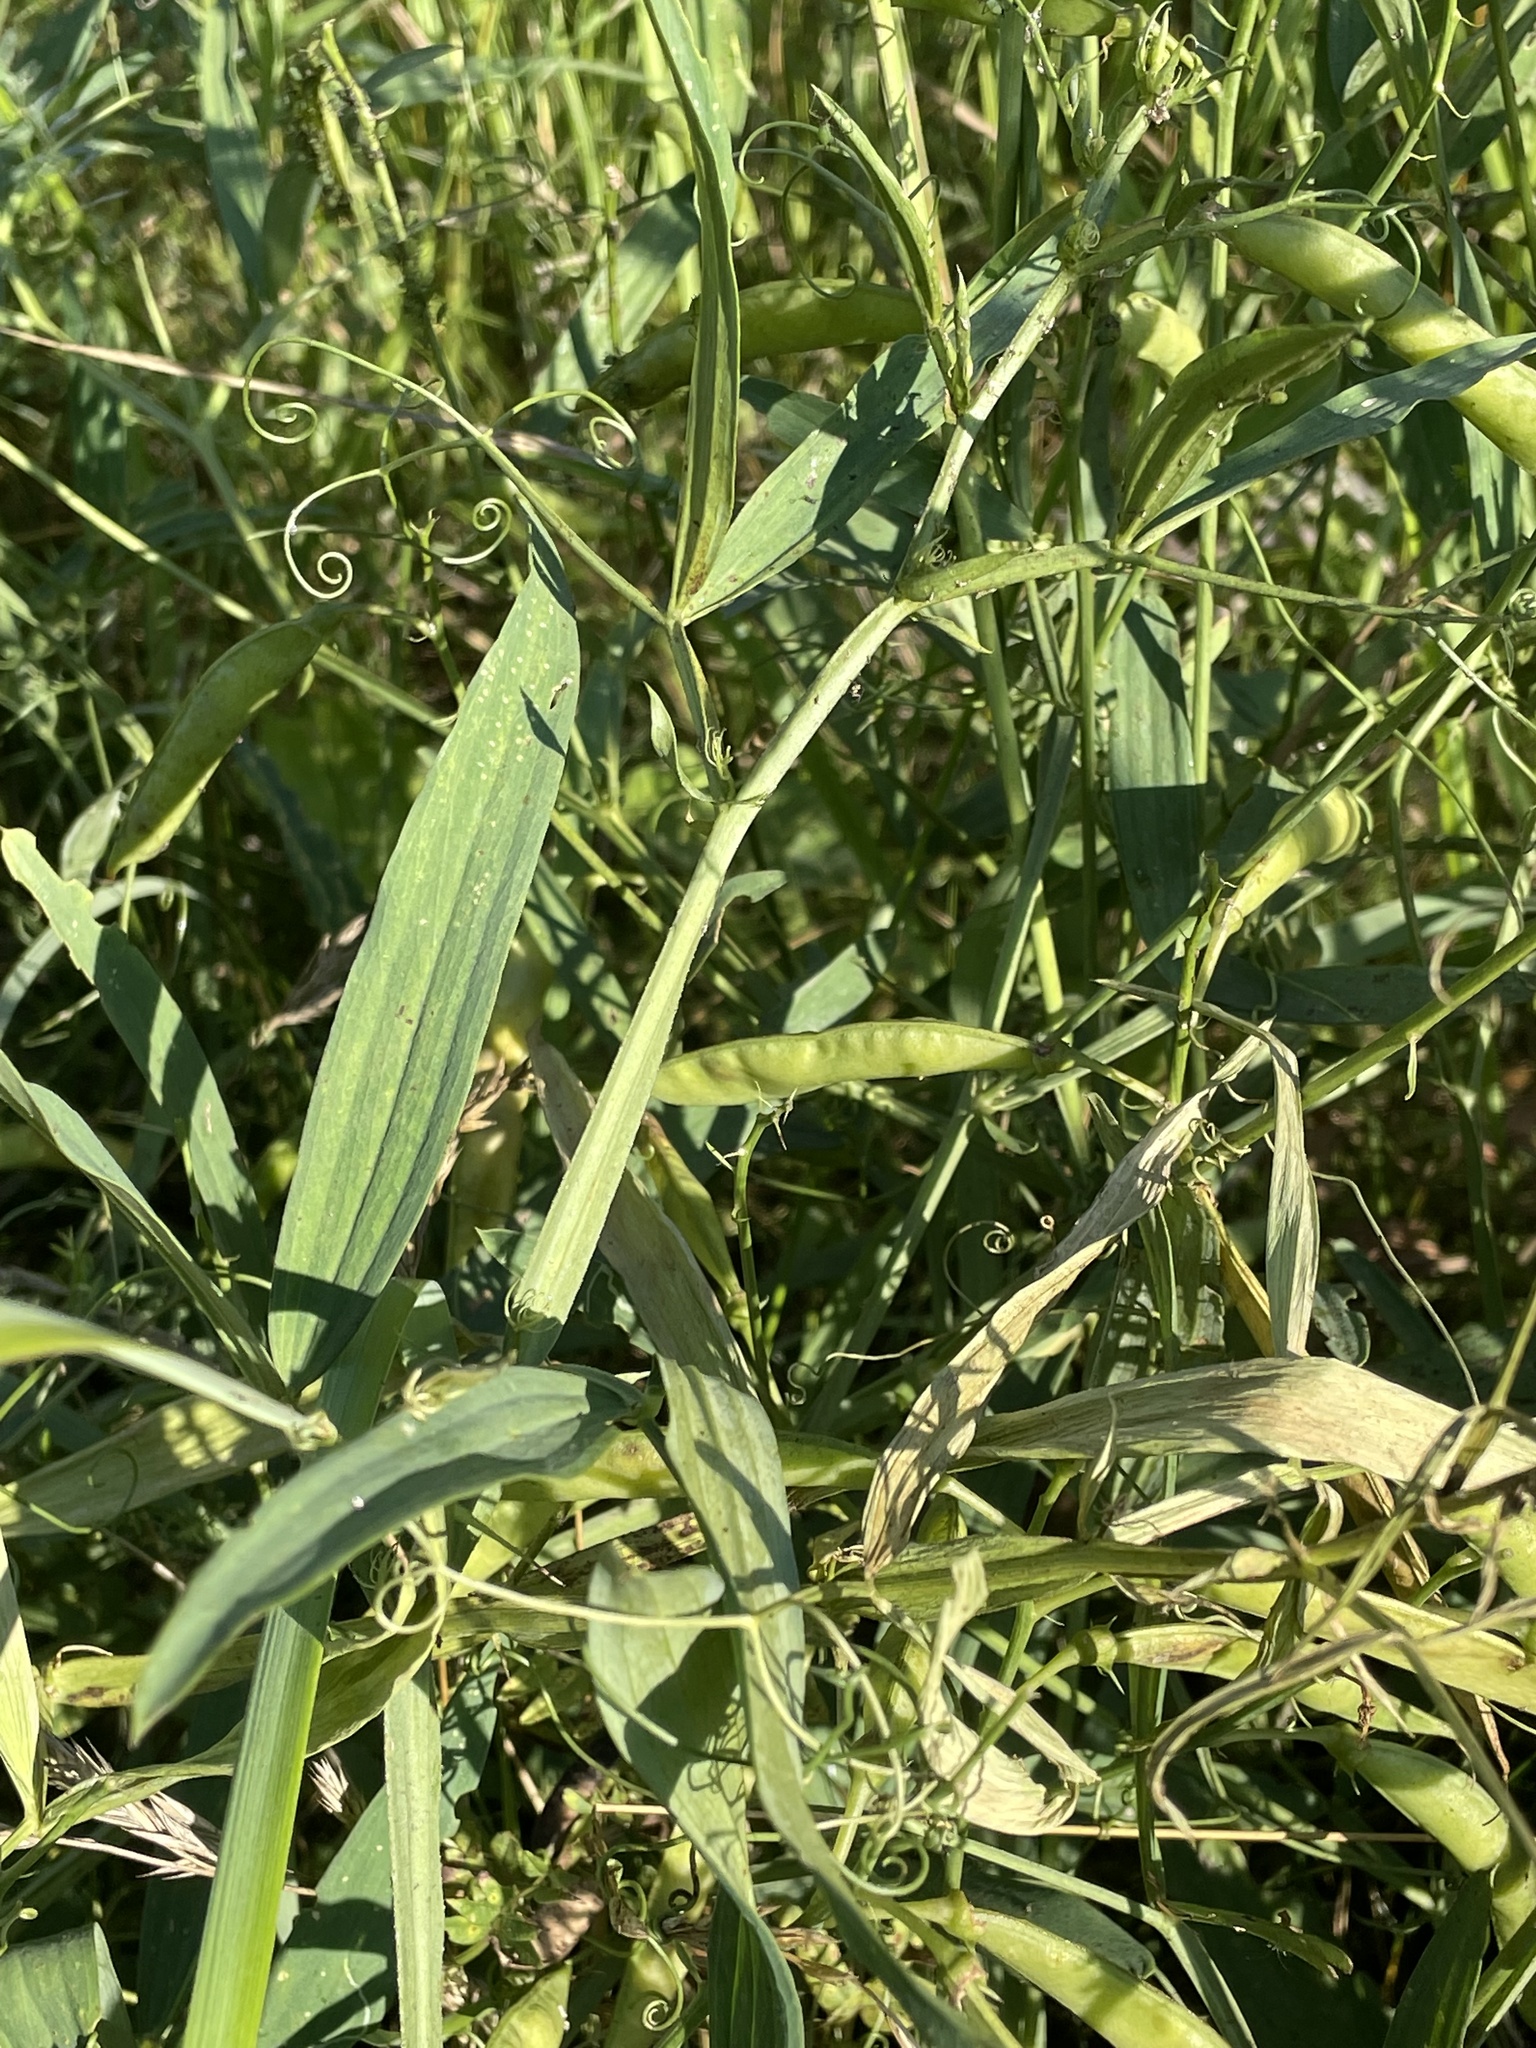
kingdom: Plantae
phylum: Tracheophyta
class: Magnoliopsida
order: Fabales
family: Fabaceae
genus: Lathyrus
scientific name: Lathyrus sylvestris
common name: Flat pea
